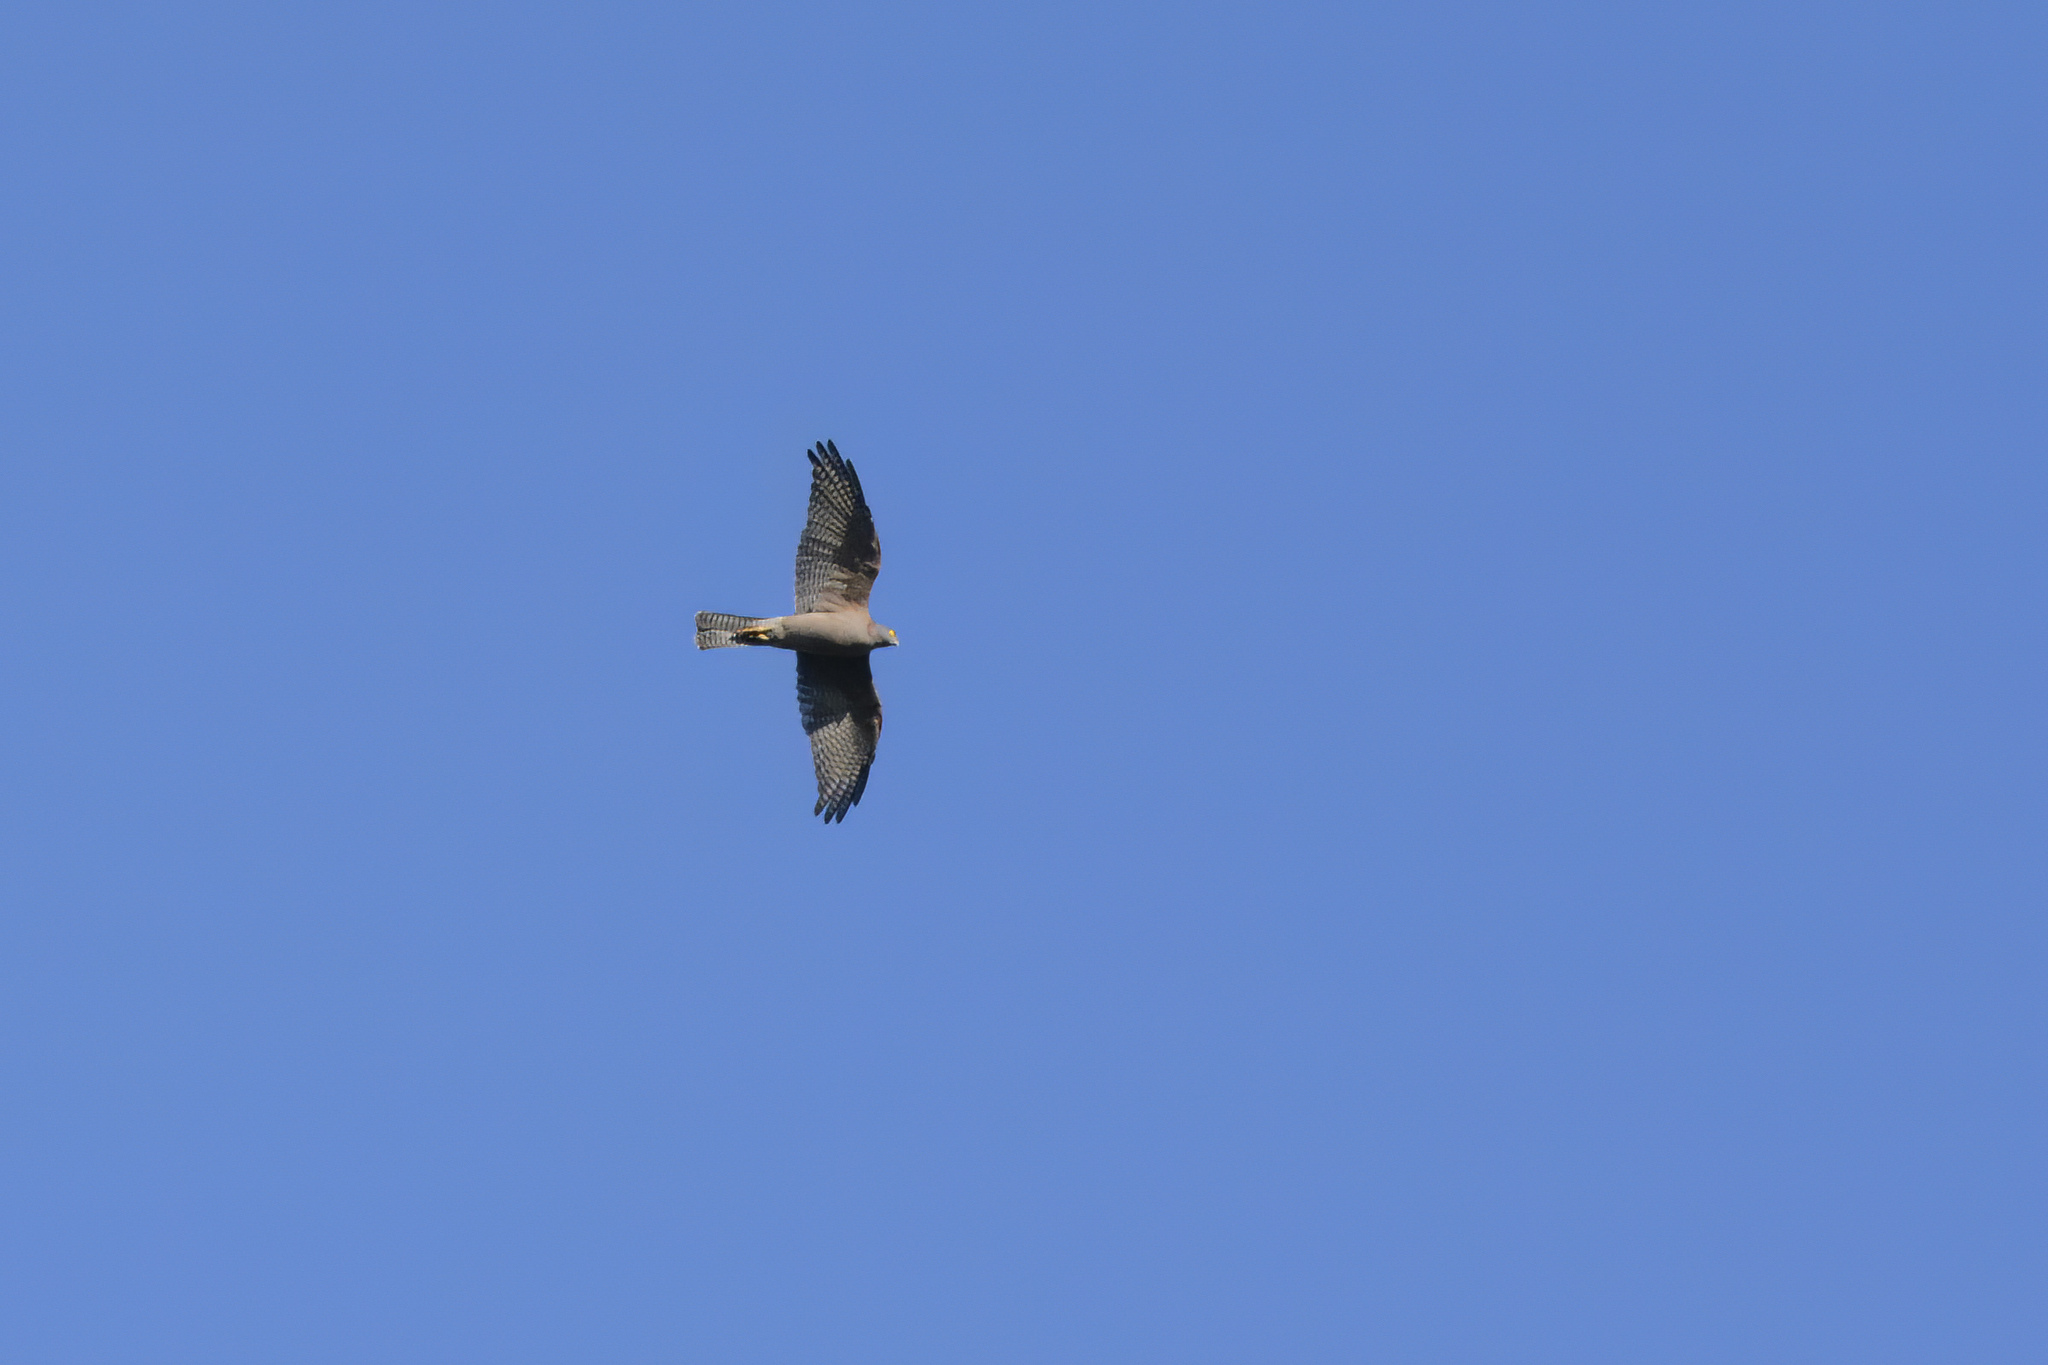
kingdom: Animalia
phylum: Chordata
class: Aves
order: Accipitriformes
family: Accipitridae
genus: Accipiter
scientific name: Accipiter cirrocephalus
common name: Collared sparrowhawk
